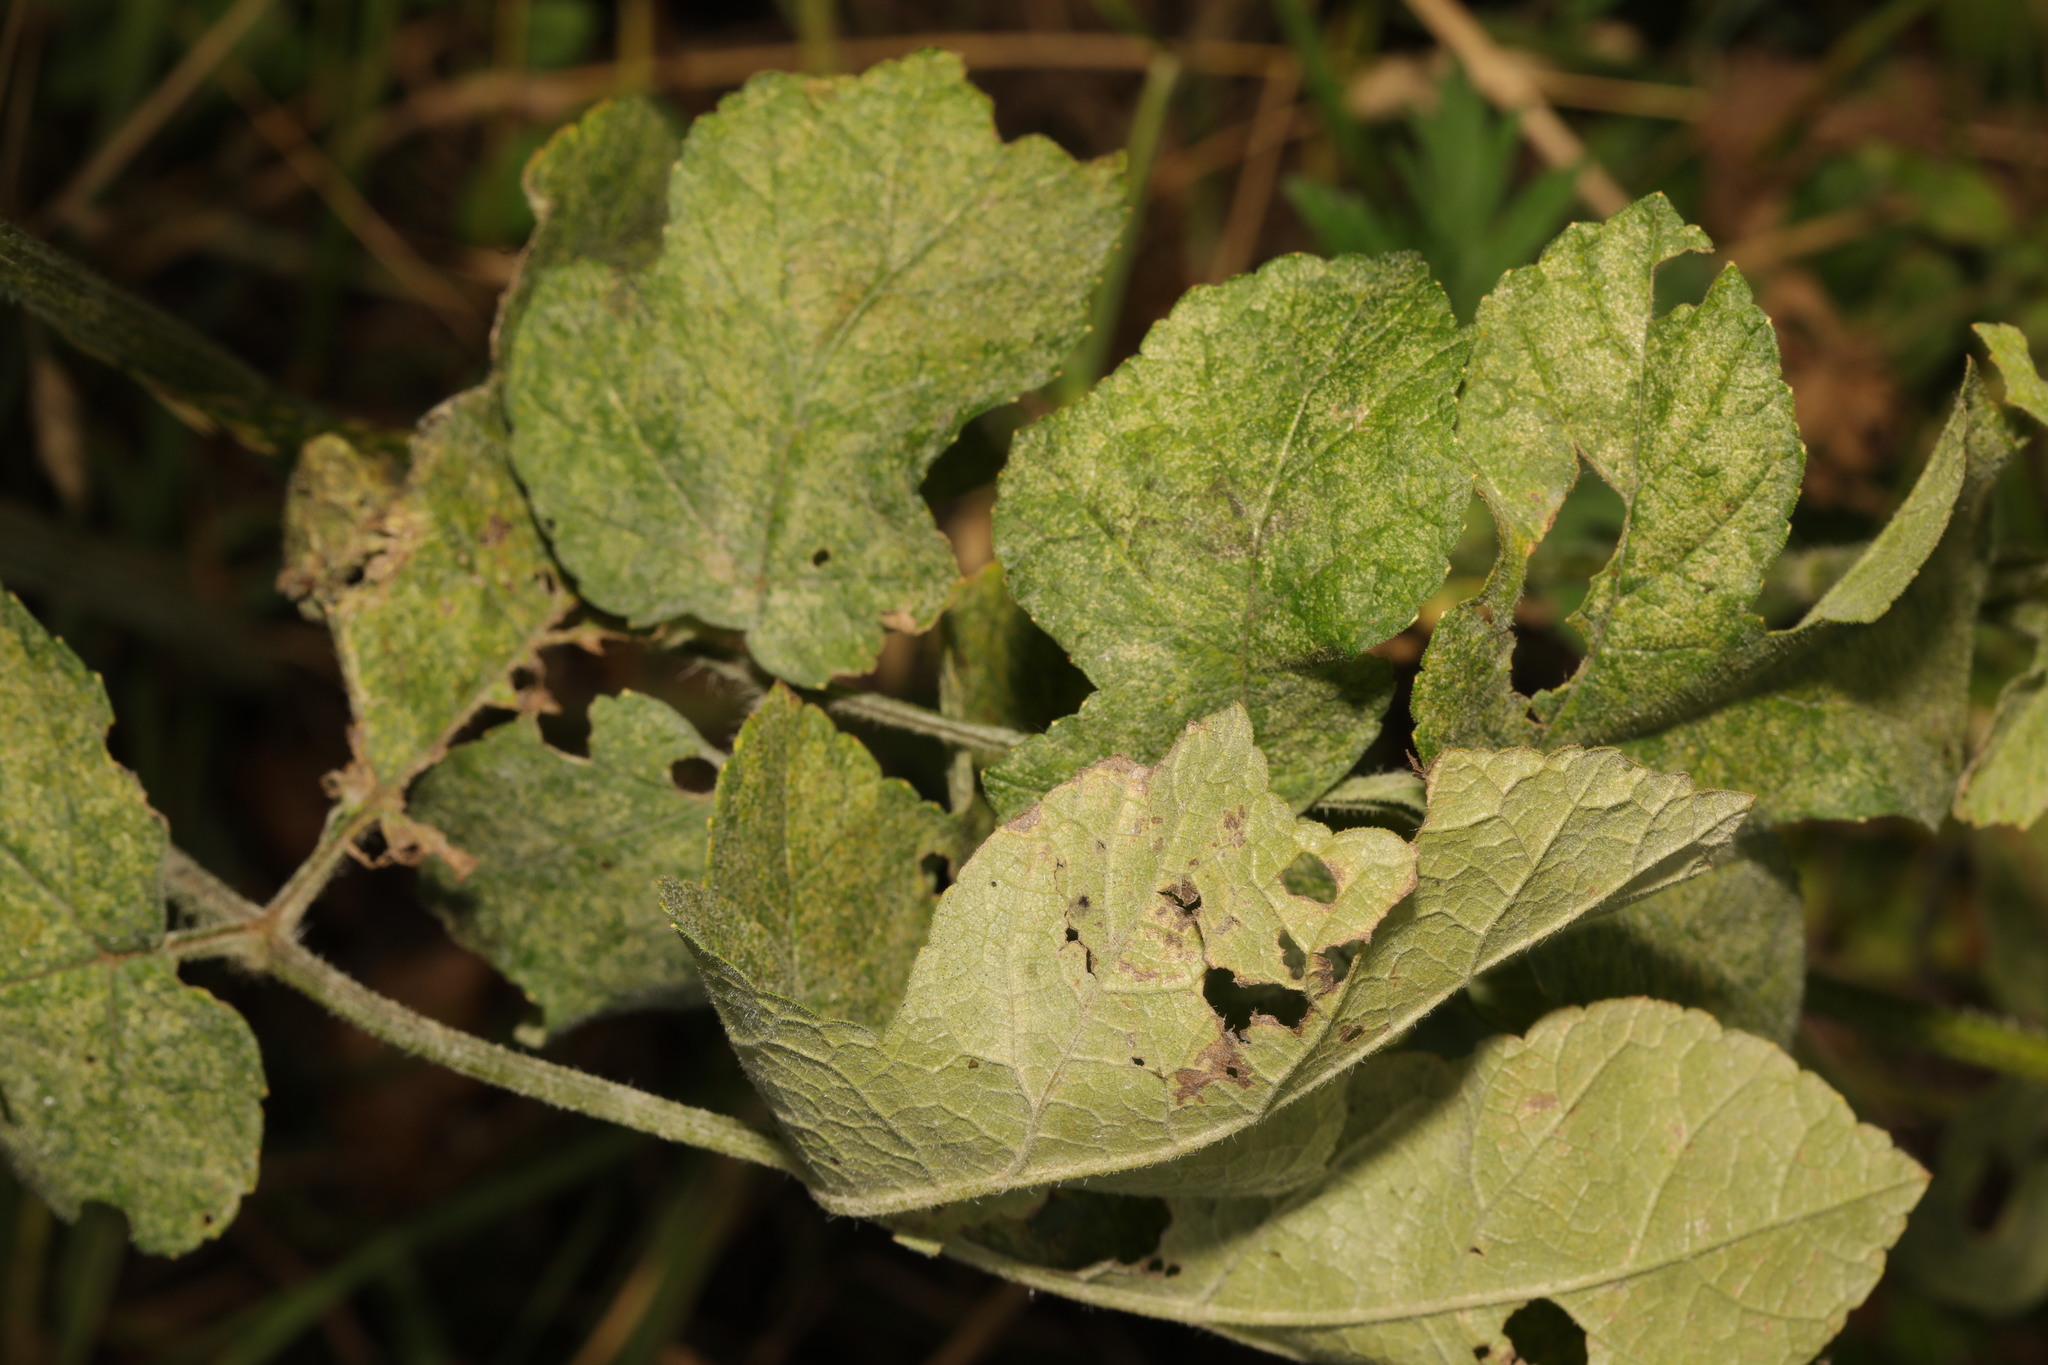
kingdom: Fungi
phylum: Ascomycota
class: Leotiomycetes
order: Helotiales
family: Erysiphaceae
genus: Erysiphe
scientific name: Erysiphe heraclei
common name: Umbellifer mildew
